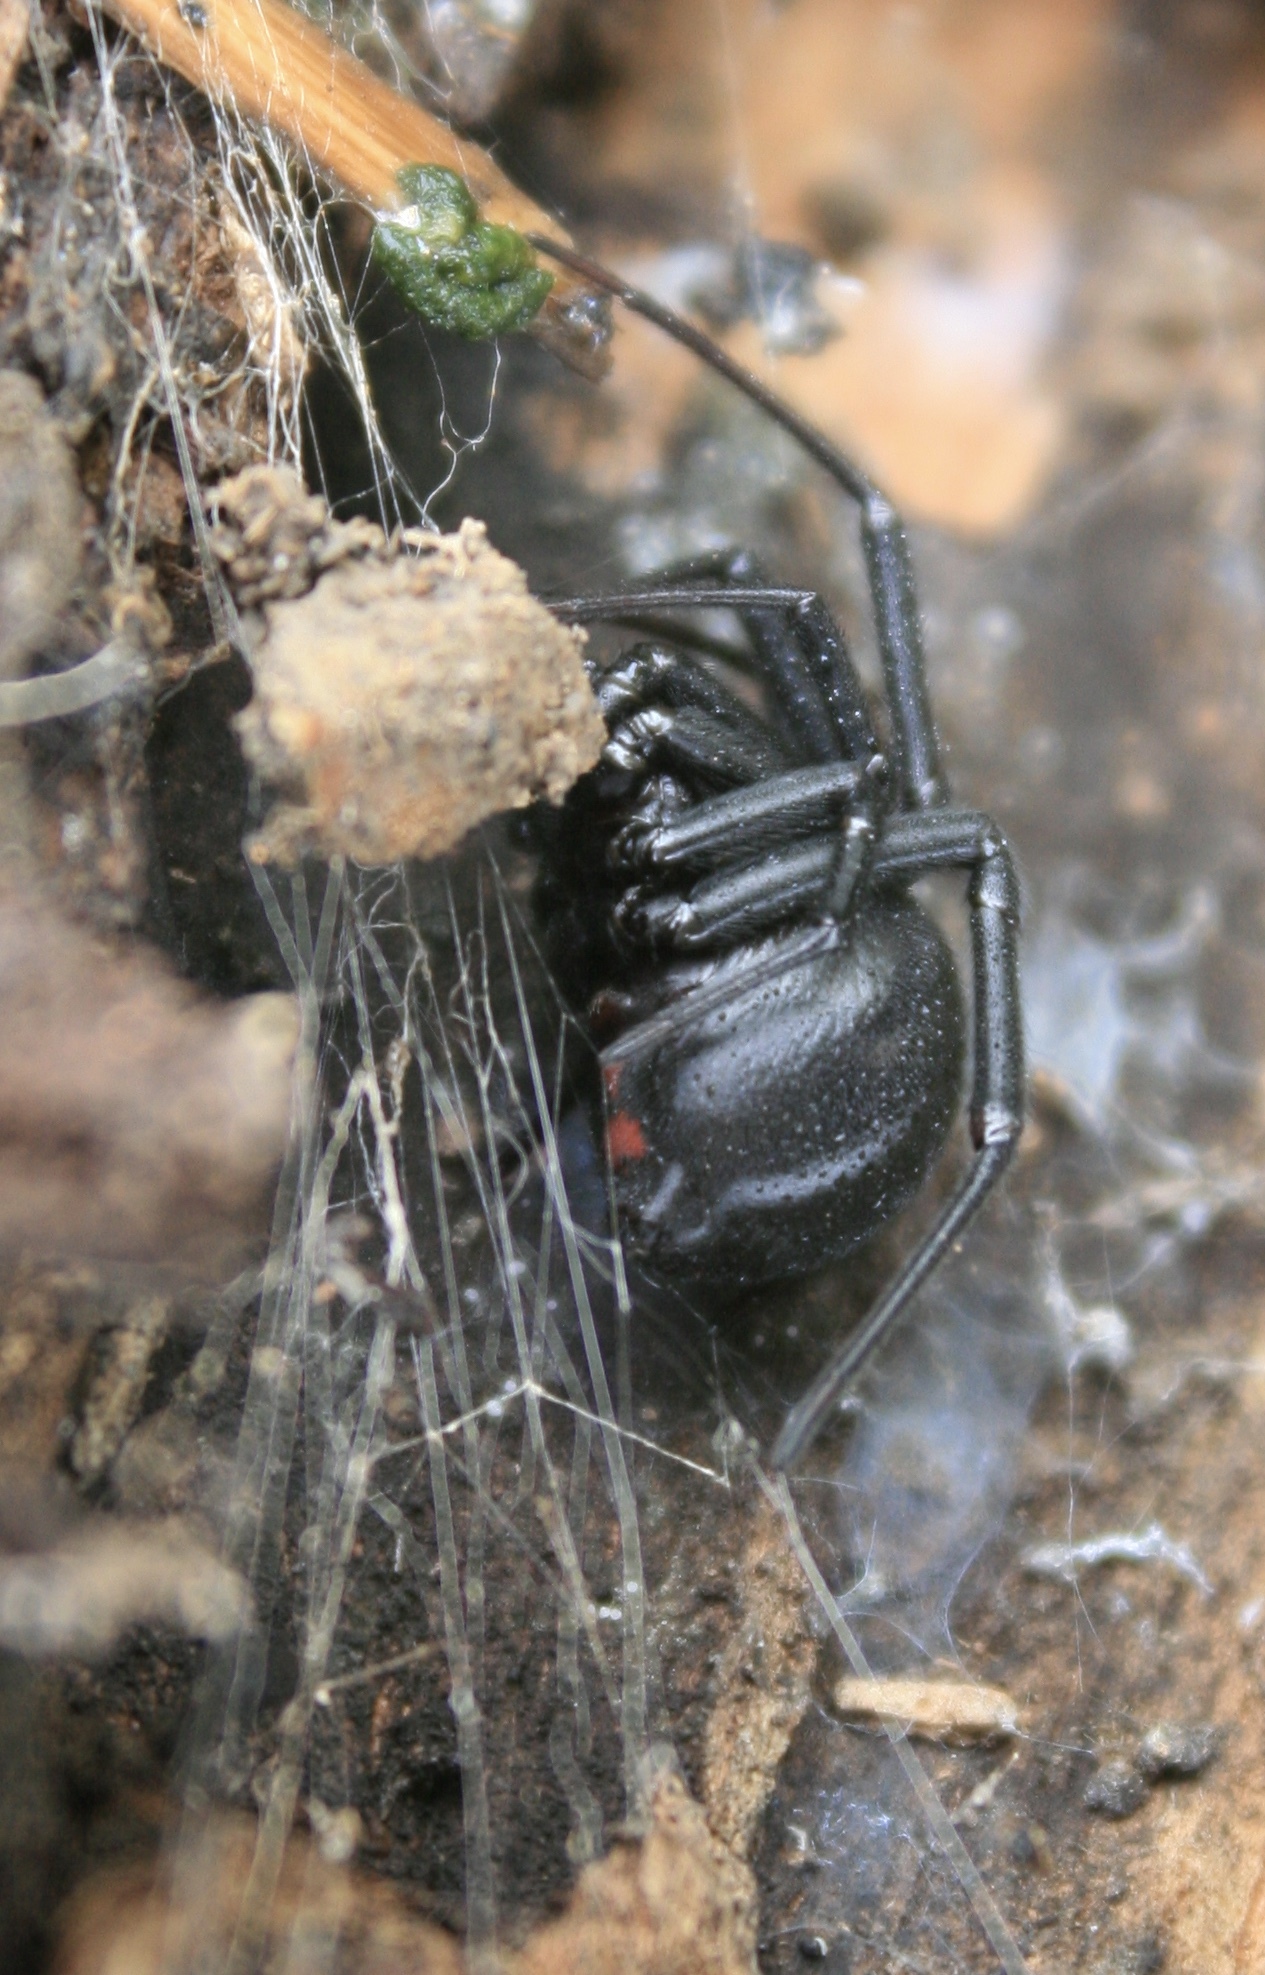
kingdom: Animalia
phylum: Arthropoda
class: Arachnida
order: Araneae
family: Theridiidae
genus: Latrodectus
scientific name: Latrodectus hesperus
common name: Western black widow
